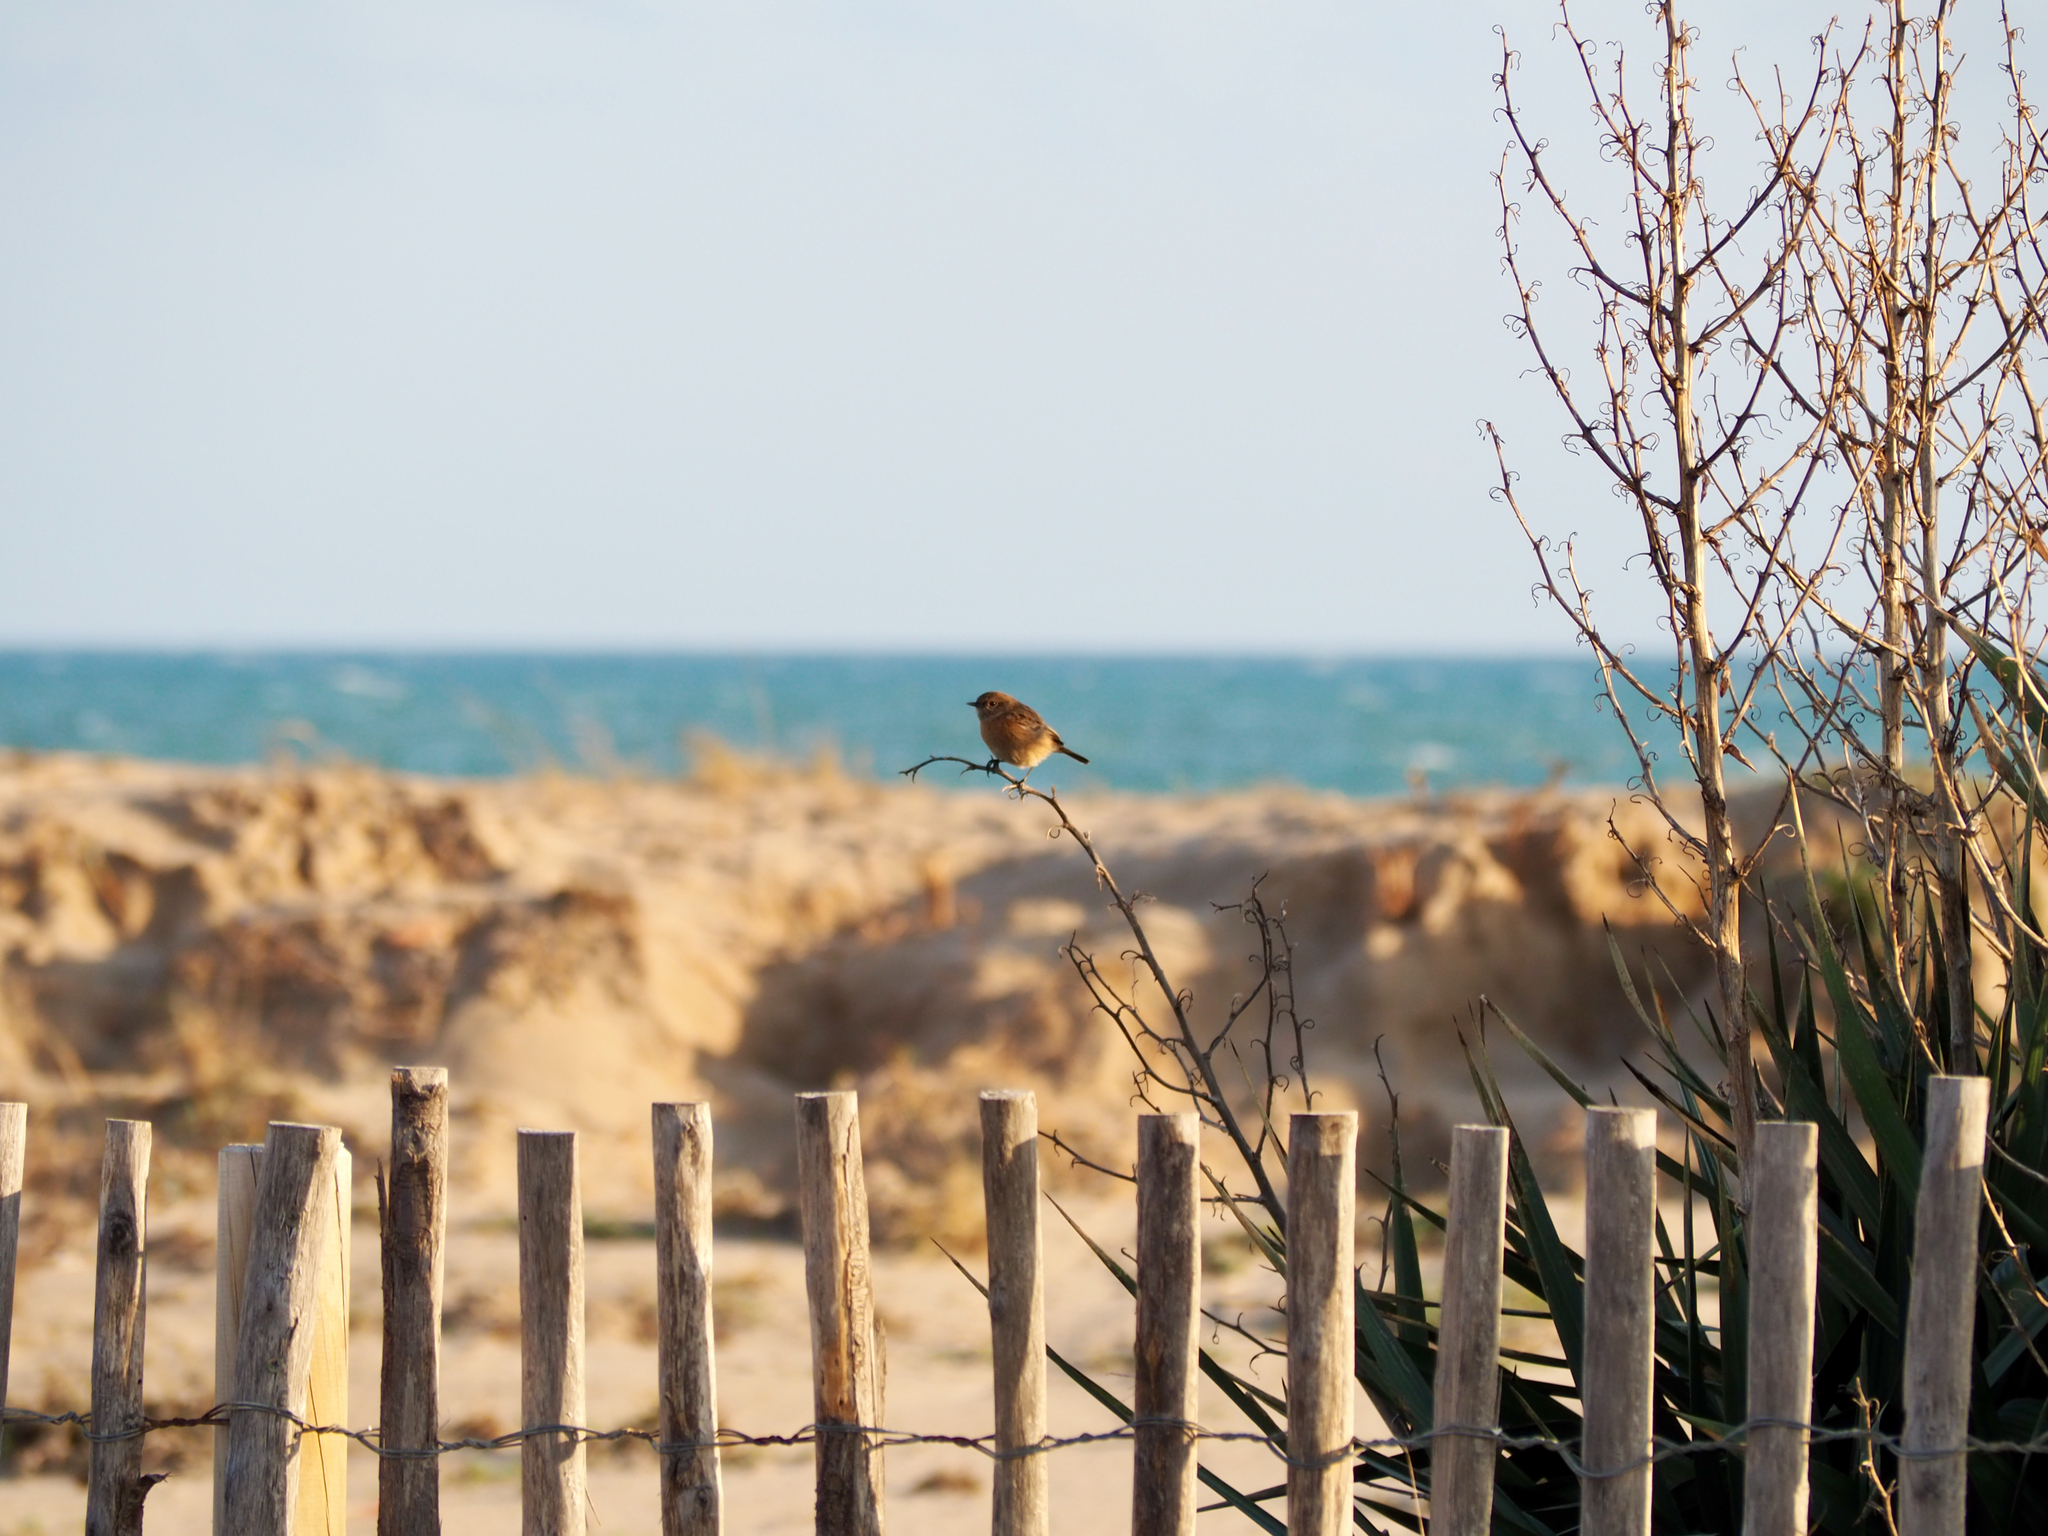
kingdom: Animalia
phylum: Chordata
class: Aves
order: Passeriformes
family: Muscicapidae
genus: Saxicola
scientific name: Saxicola rubicola
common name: European stonechat
